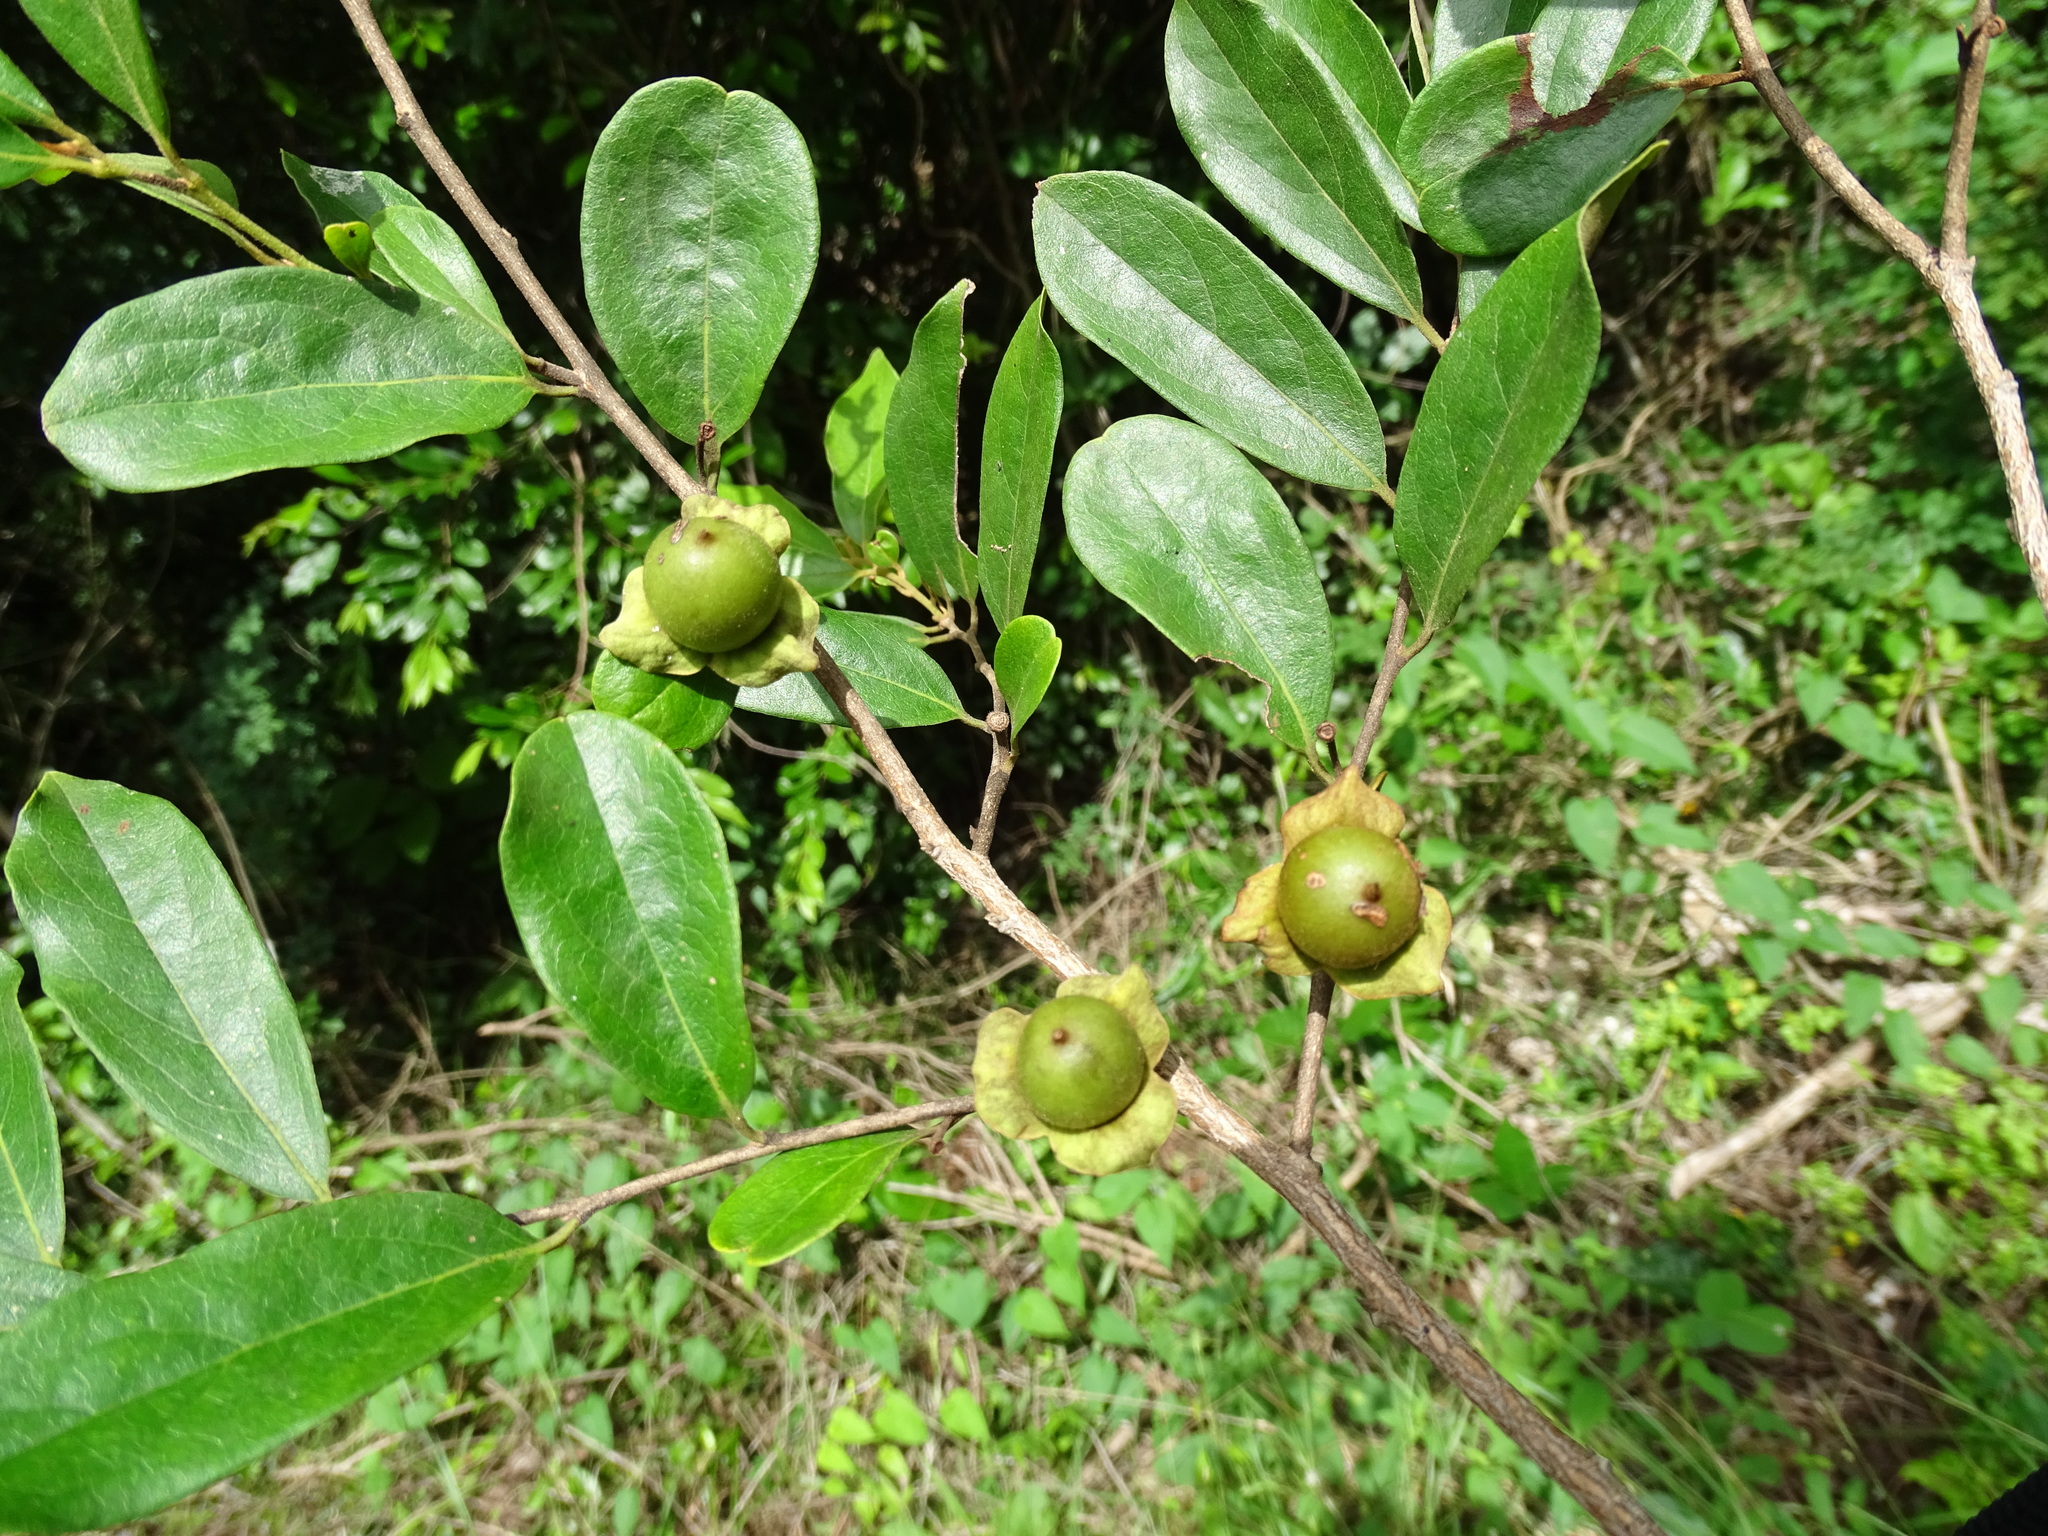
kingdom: Plantae
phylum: Tracheophyta
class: Magnoliopsida
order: Ericales
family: Ebenaceae
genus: Diospyros
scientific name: Diospyros salicifolia
